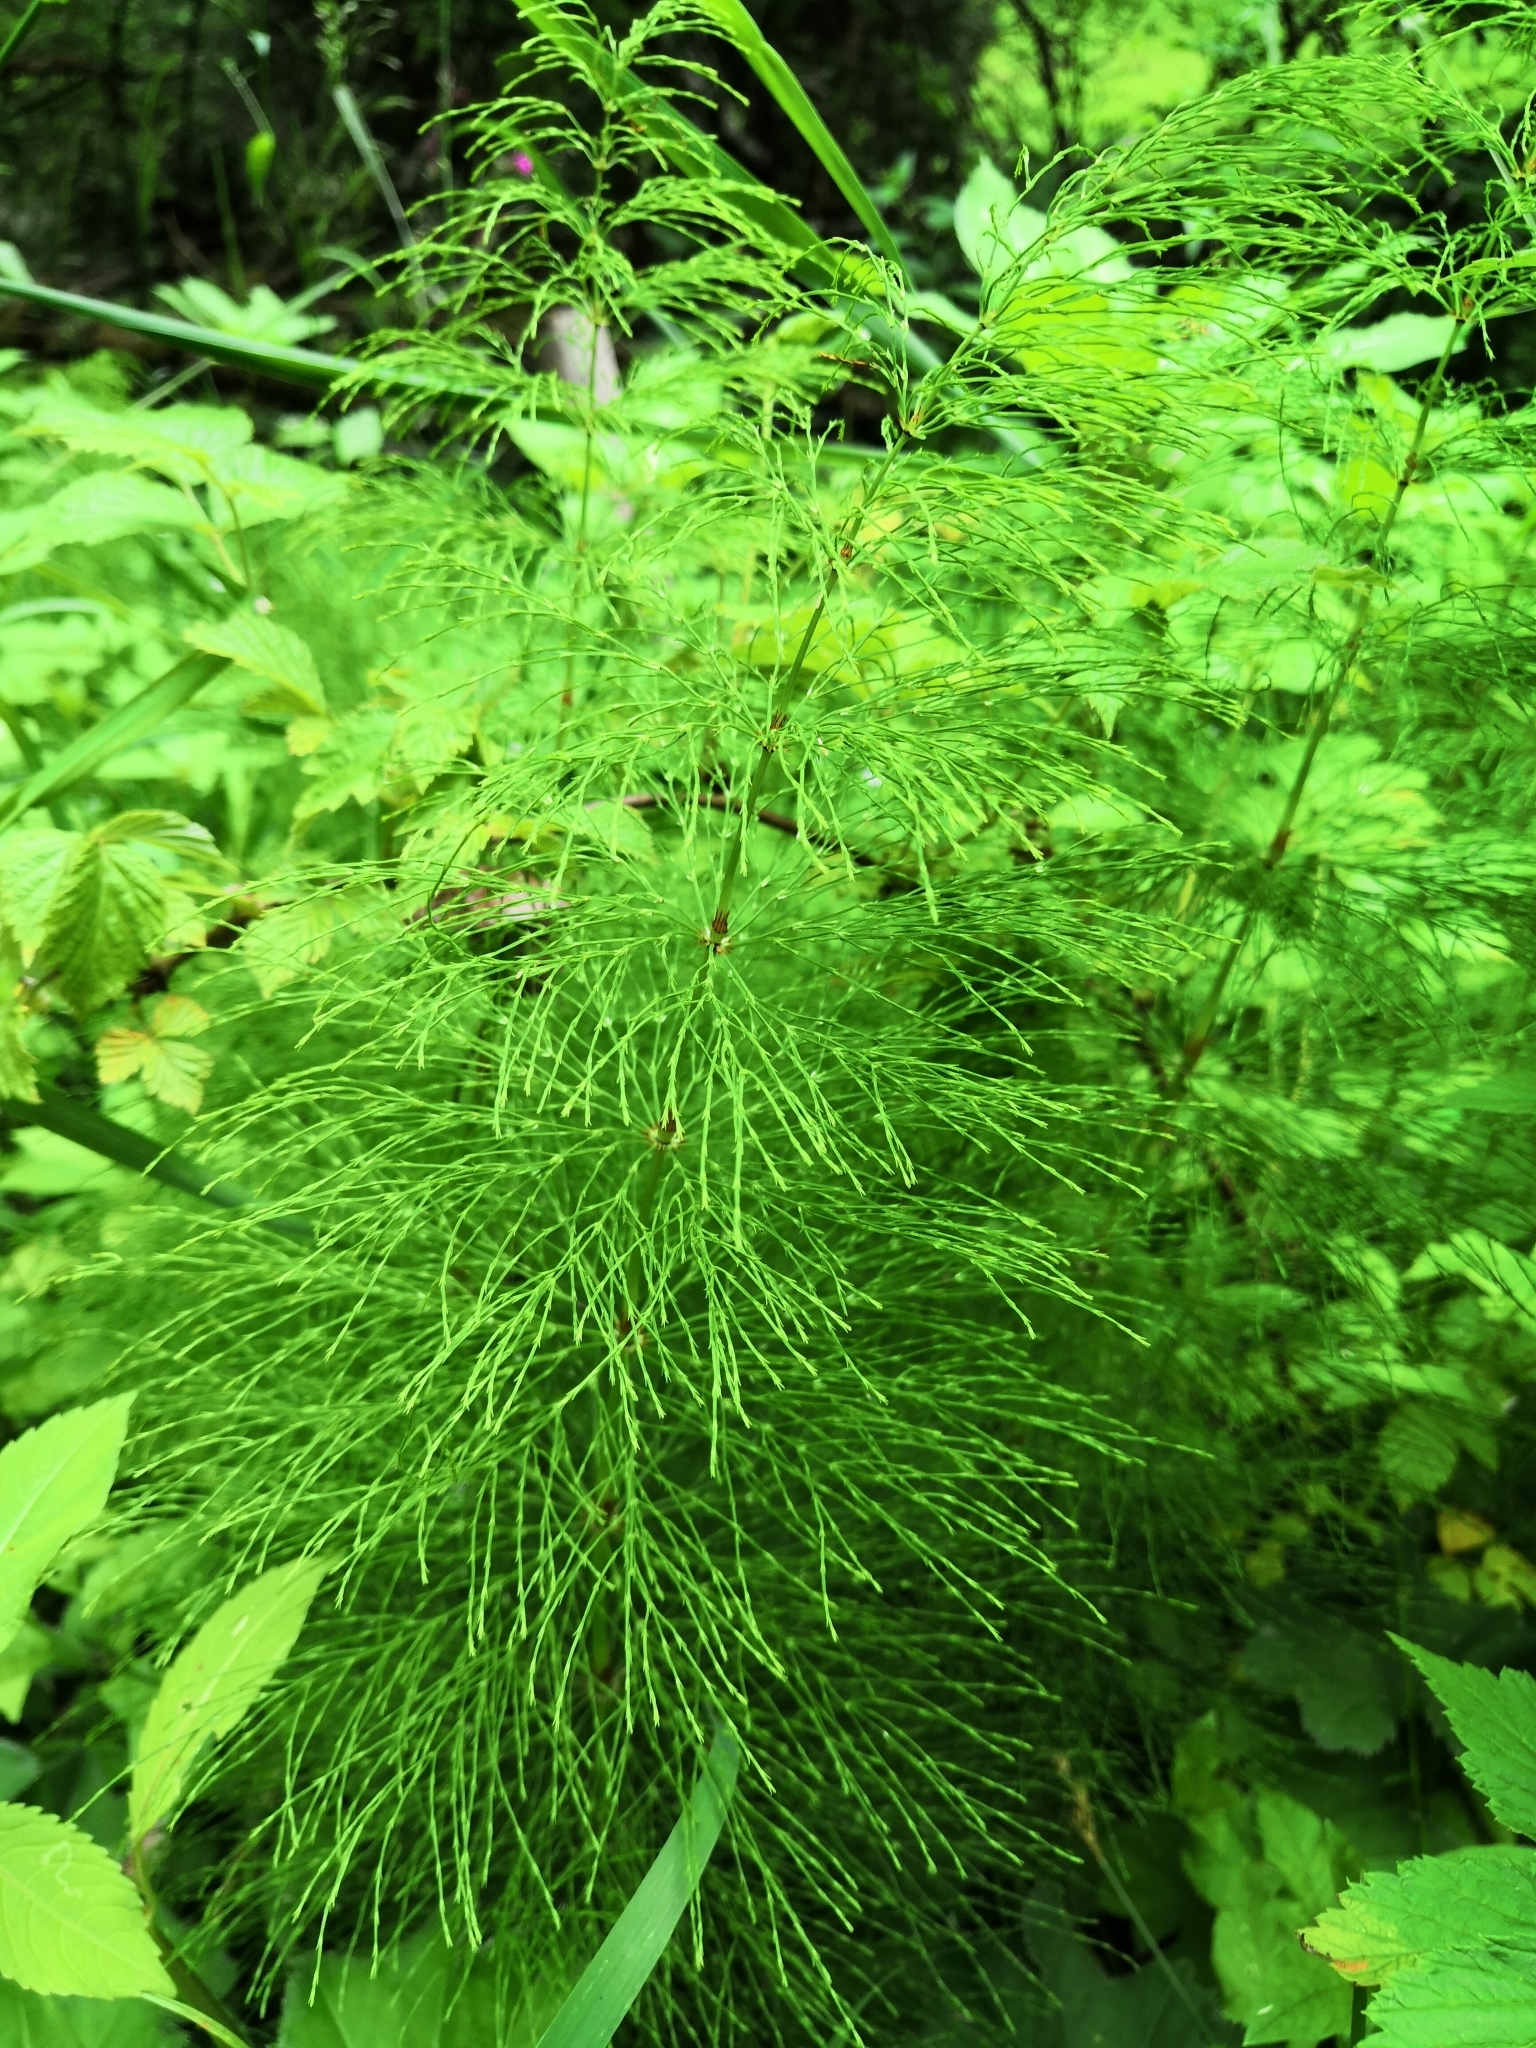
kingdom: Plantae
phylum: Tracheophyta
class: Polypodiopsida
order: Equisetales
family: Equisetaceae
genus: Equisetum
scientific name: Equisetum sylvaticum
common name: Wood horsetail
